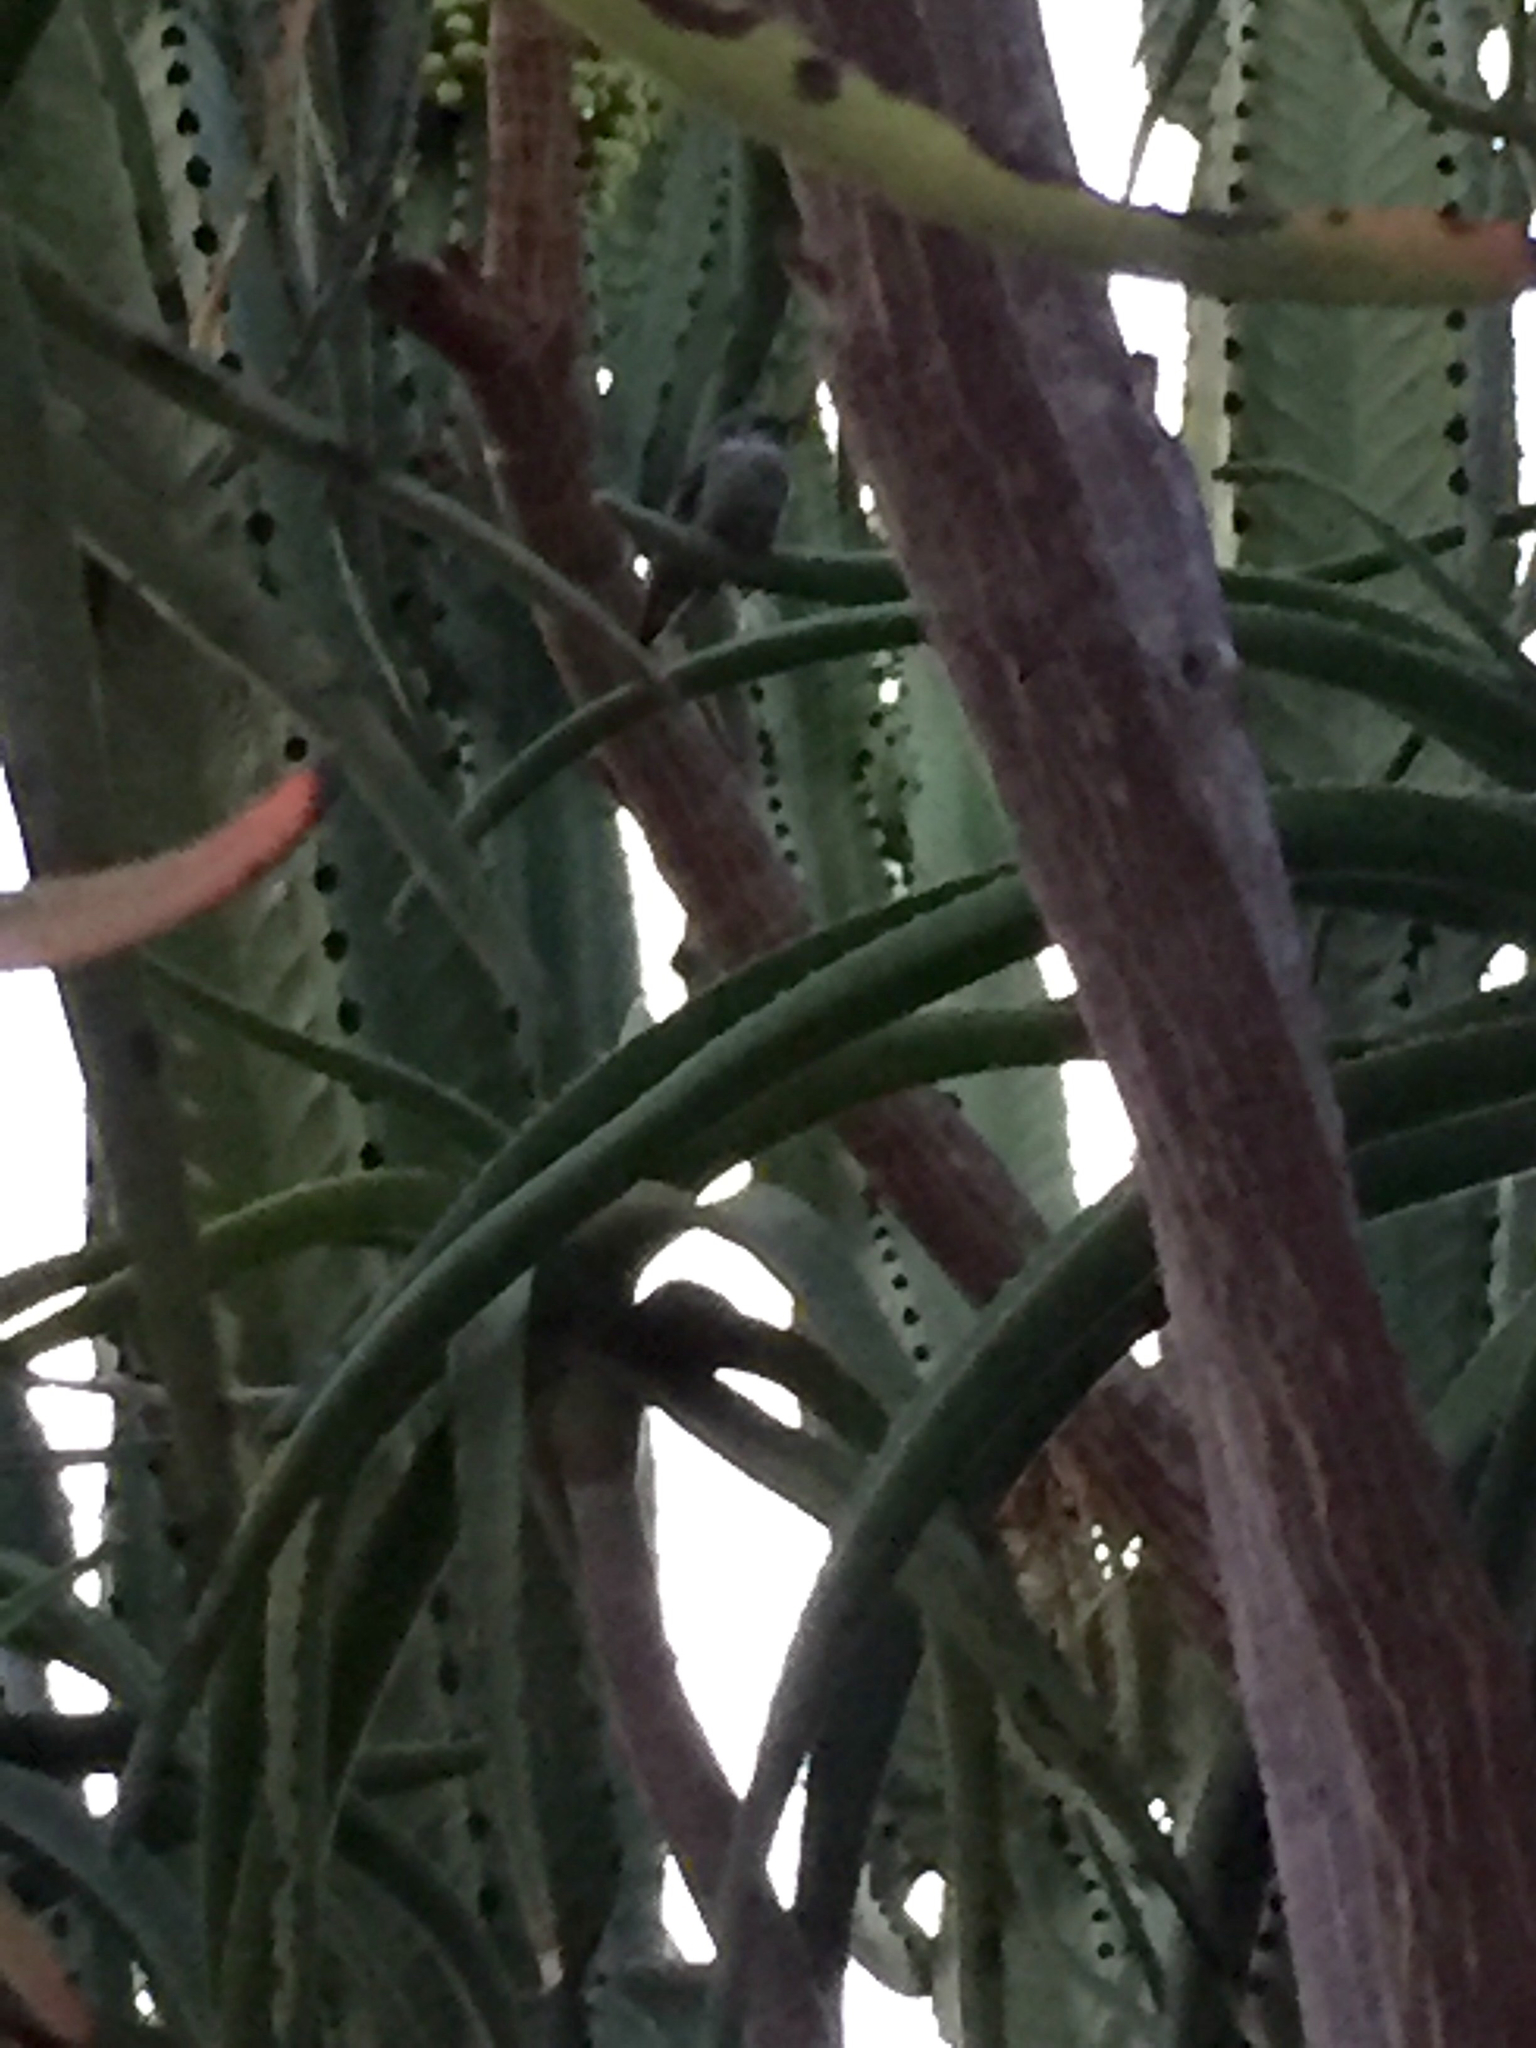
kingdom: Animalia
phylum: Chordata
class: Aves
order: Apodiformes
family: Trochilidae
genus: Calypte
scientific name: Calypte anna
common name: Anna's hummingbird
